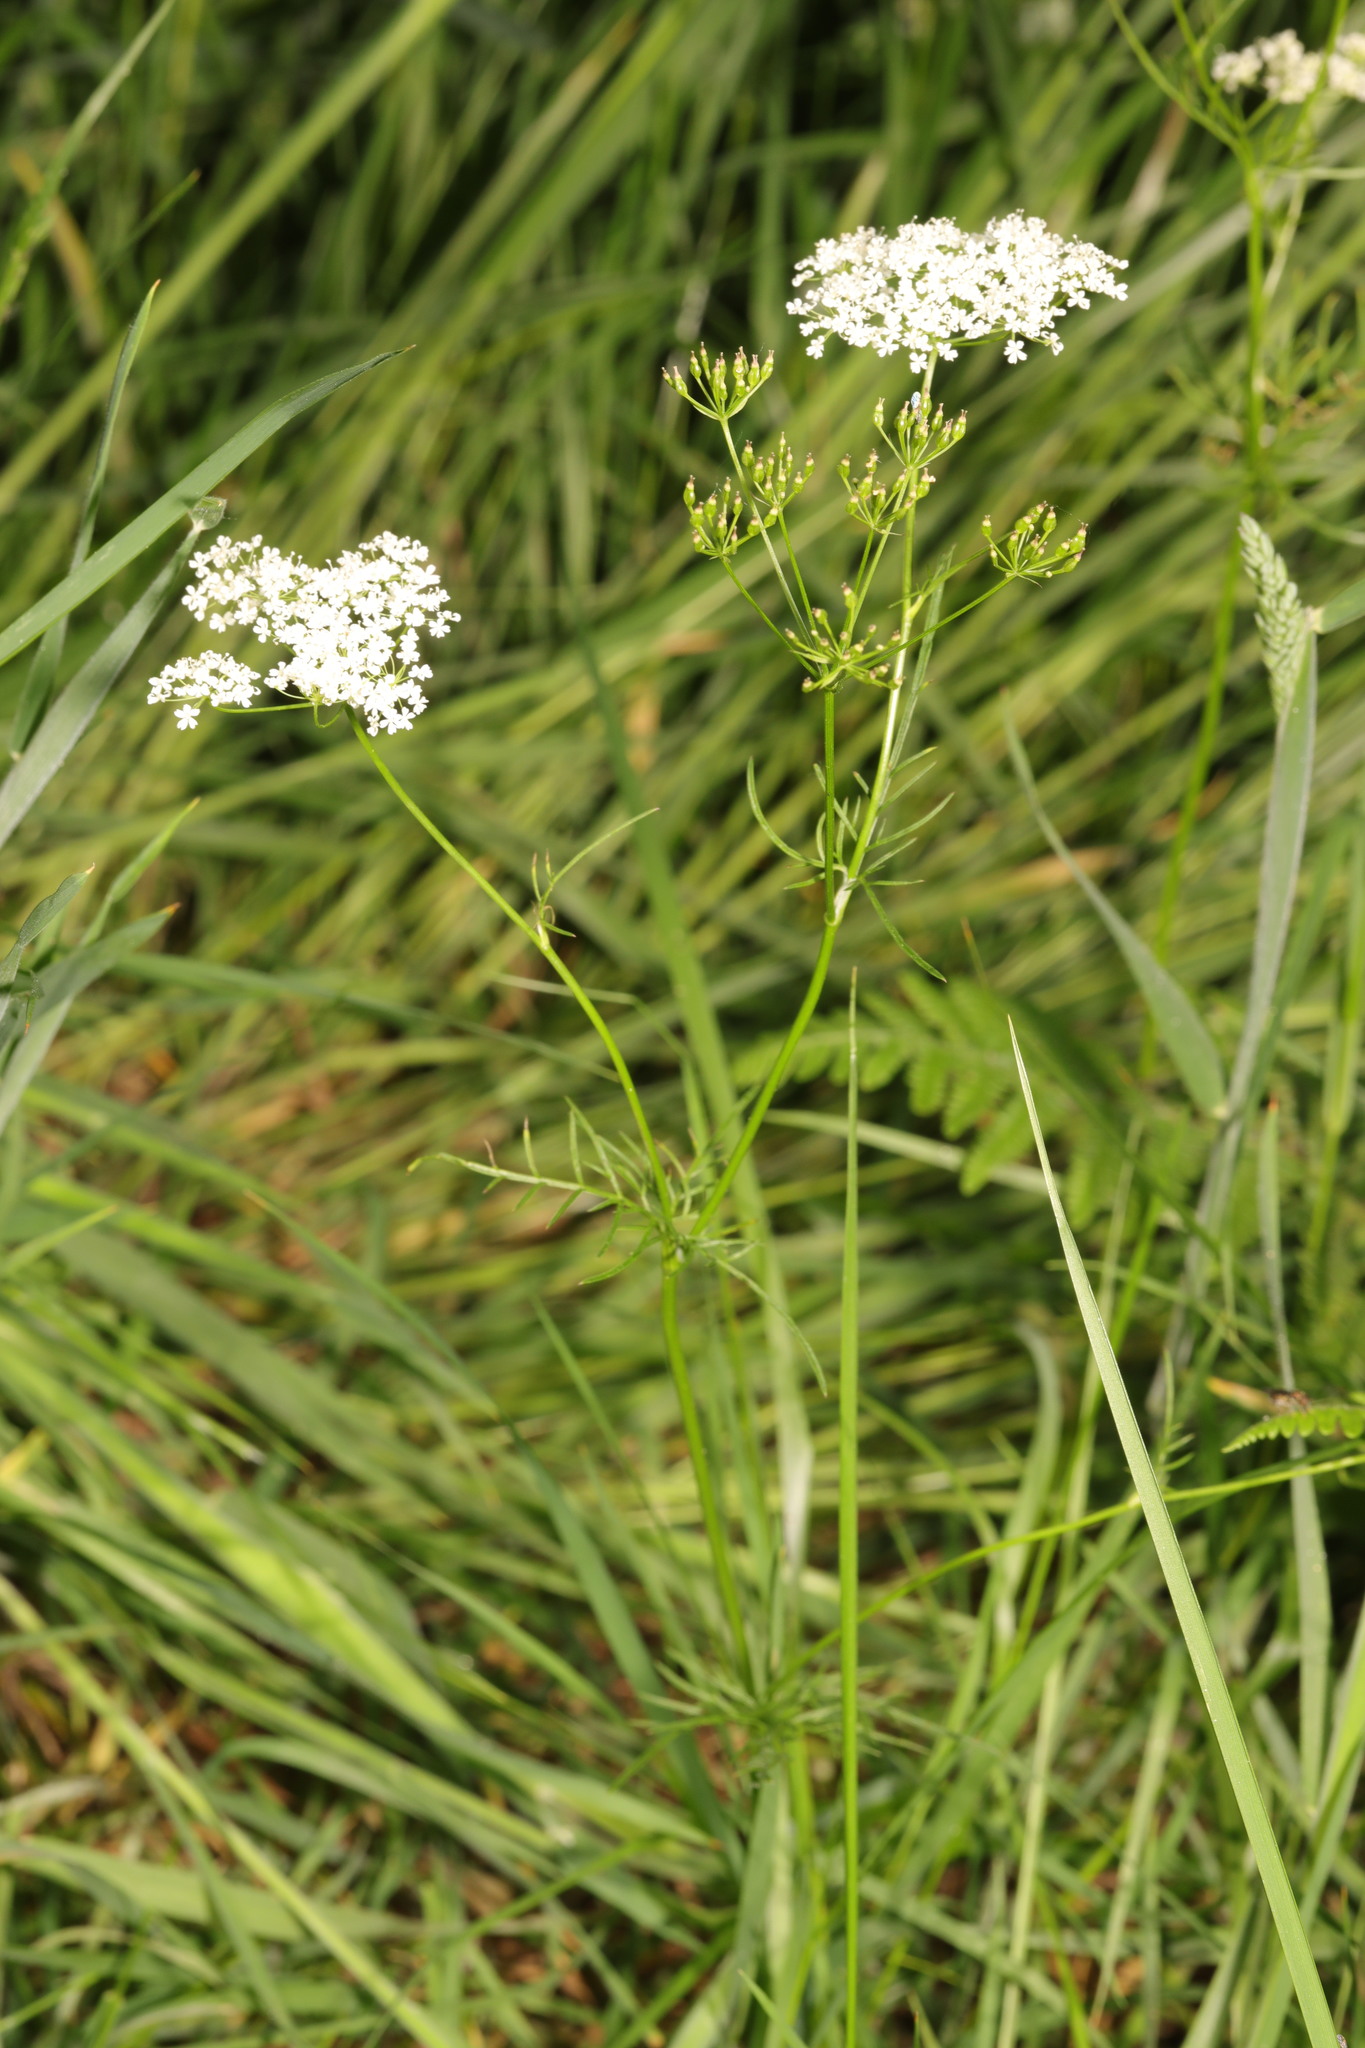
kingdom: Plantae
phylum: Tracheophyta
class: Magnoliopsida
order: Apiales
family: Apiaceae
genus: Conopodium
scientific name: Conopodium majus
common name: Pignut
